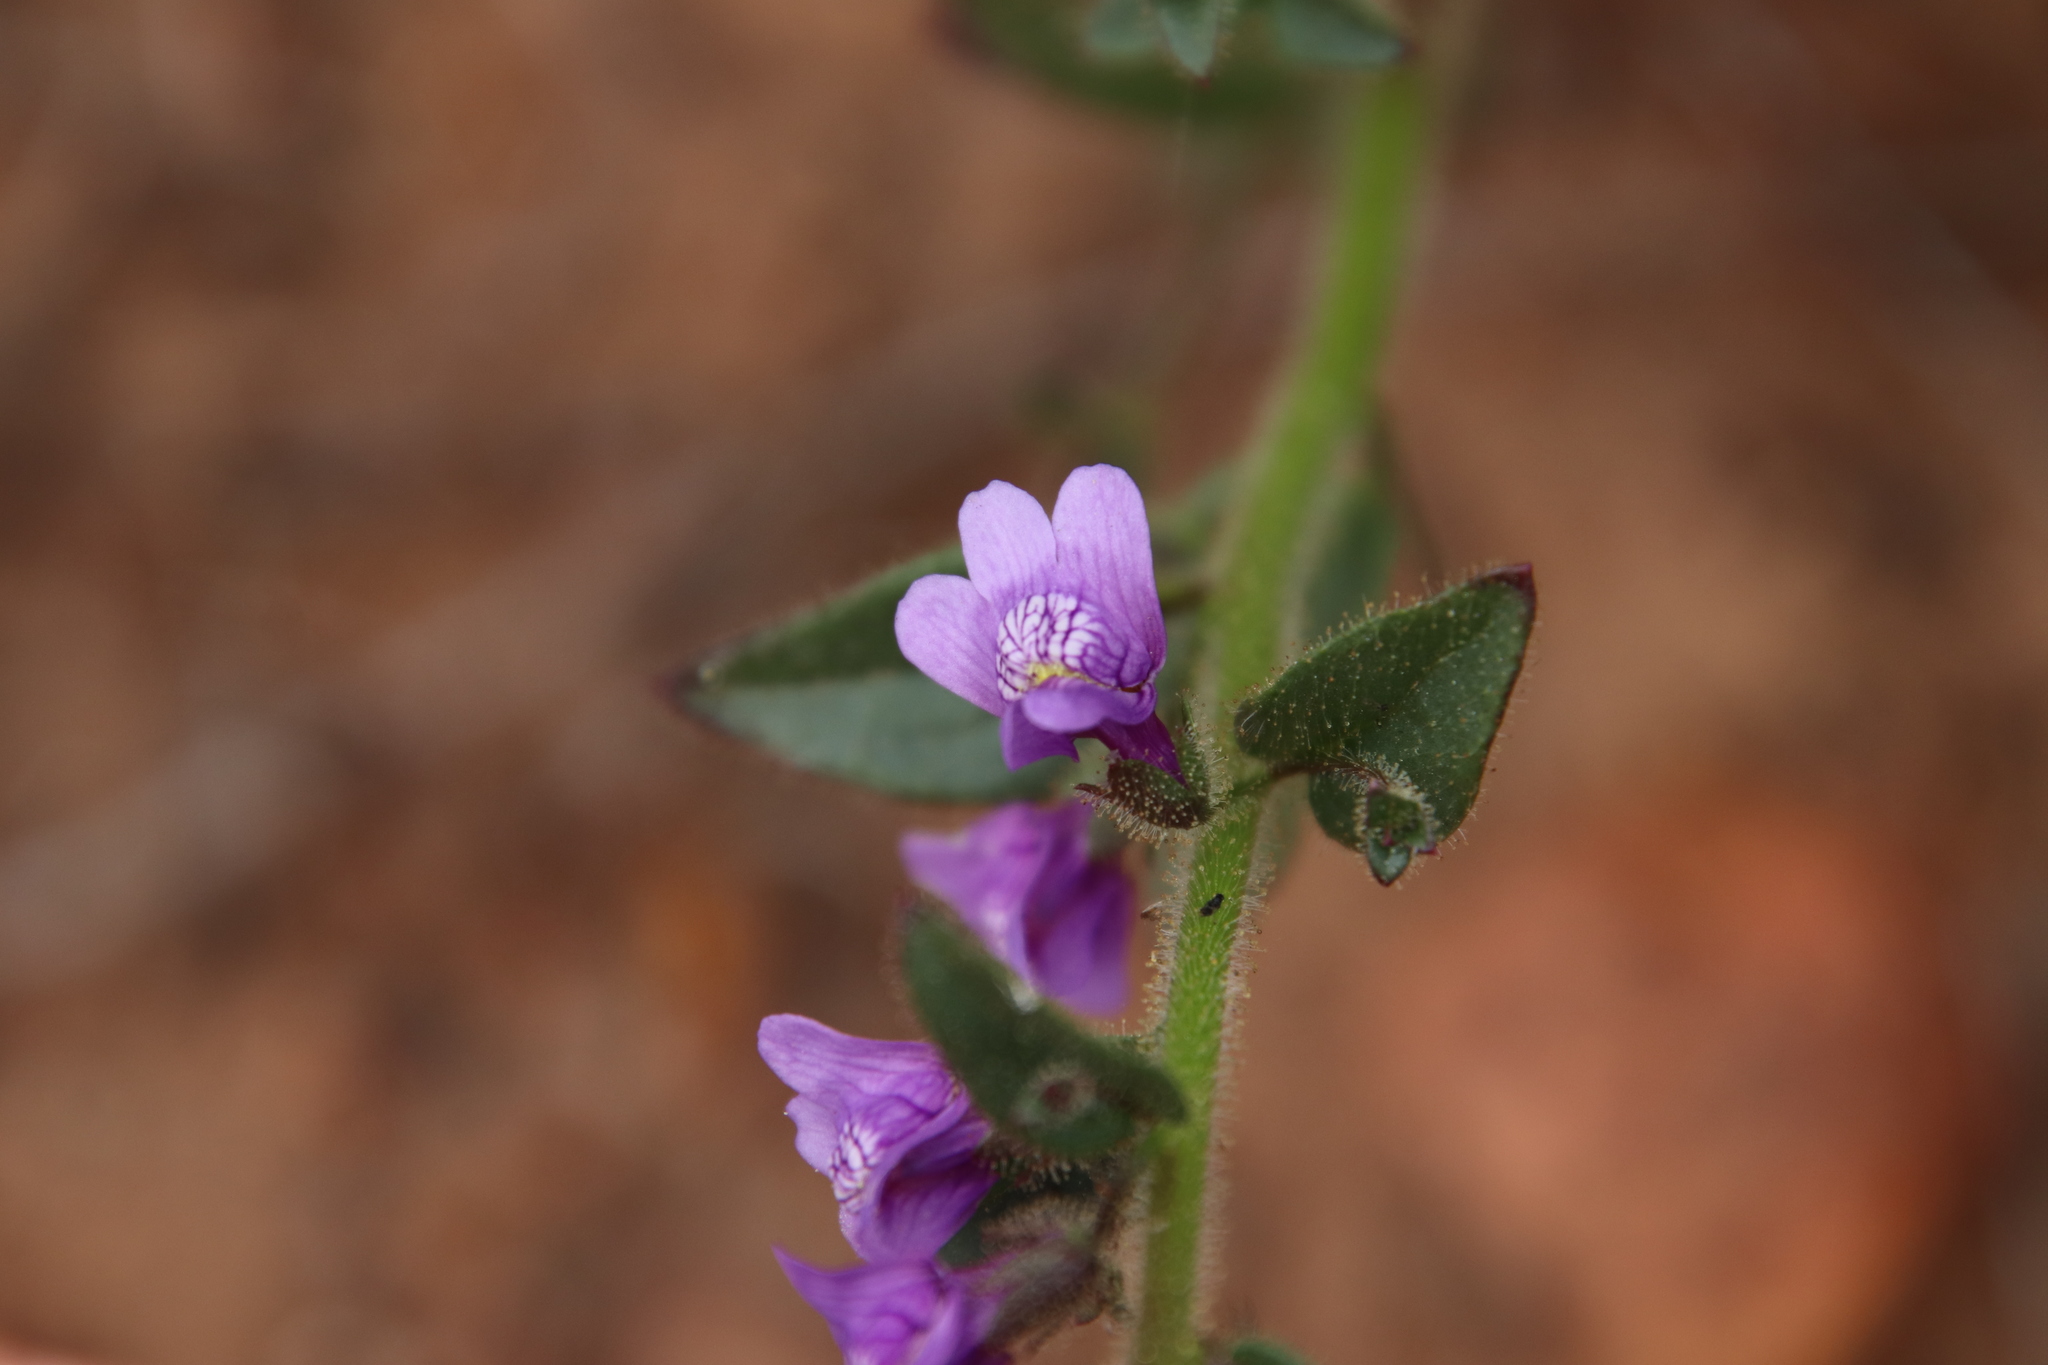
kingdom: Plantae
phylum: Tracheophyta
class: Magnoliopsida
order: Lamiales
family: Plantaginaceae
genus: Sairocarpus
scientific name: Sairocarpus nuttallianus
